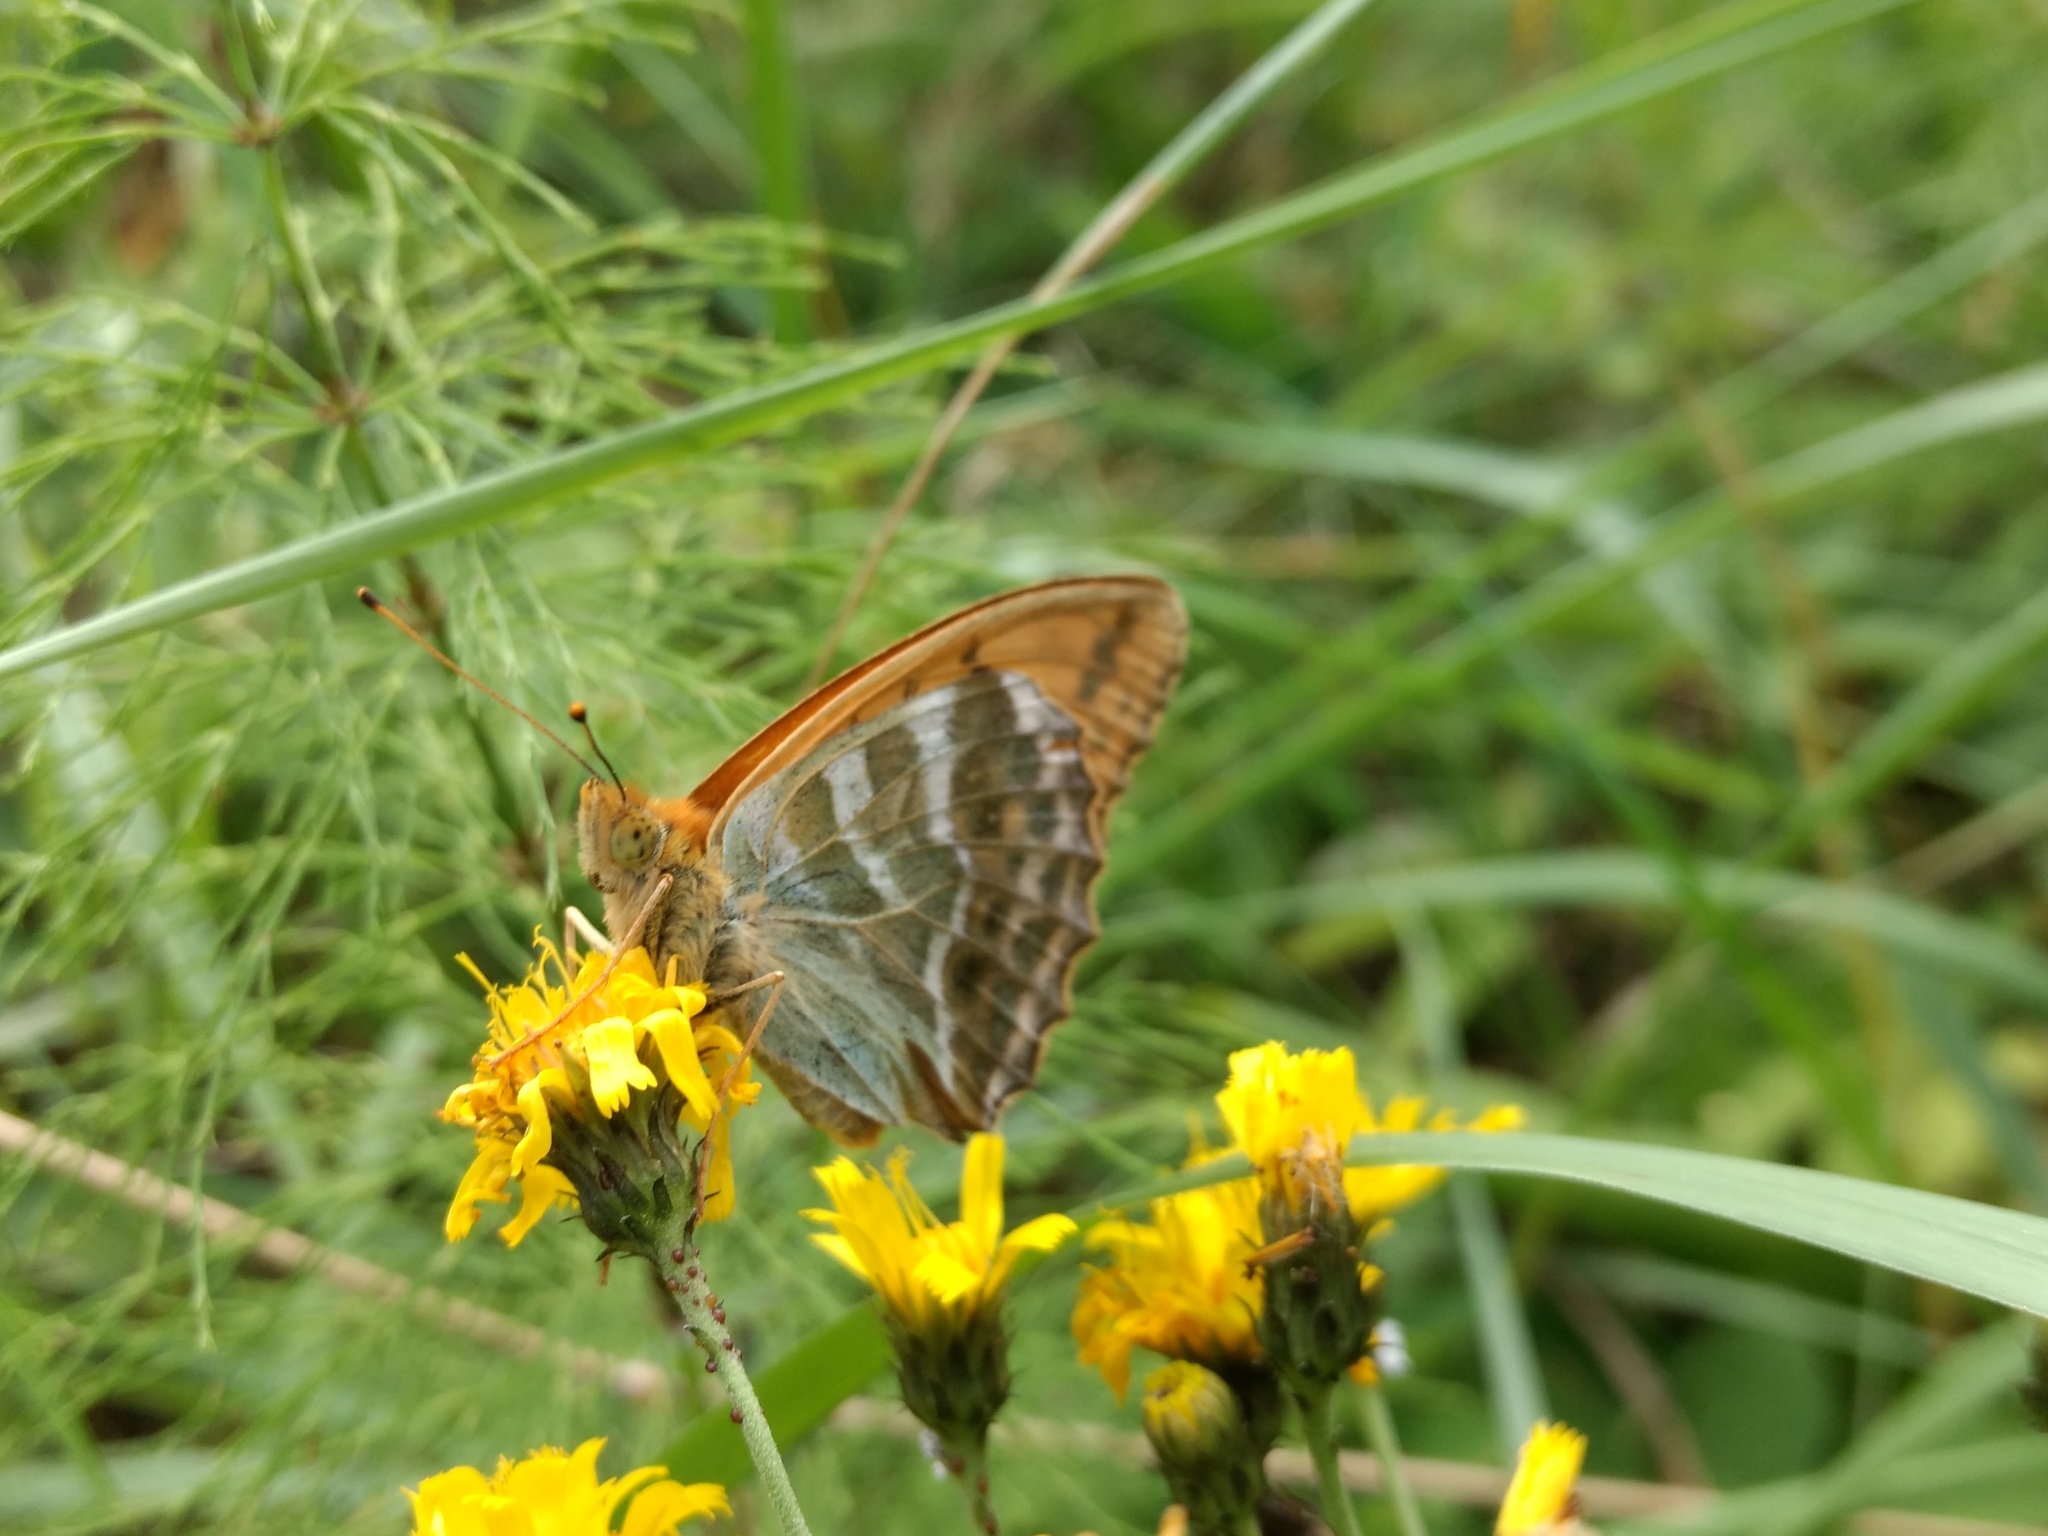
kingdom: Animalia
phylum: Arthropoda
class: Insecta
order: Lepidoptera
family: Nymphalidae
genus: Argynnis
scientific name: Argynnis paphia
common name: Silver-washed fritillary
